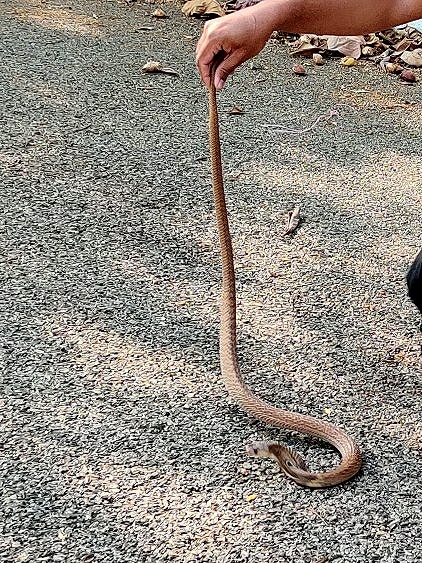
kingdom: Animalia
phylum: Chordata
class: Squamata
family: Elapidae
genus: Naja
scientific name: Naja naja
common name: Indian cobra
